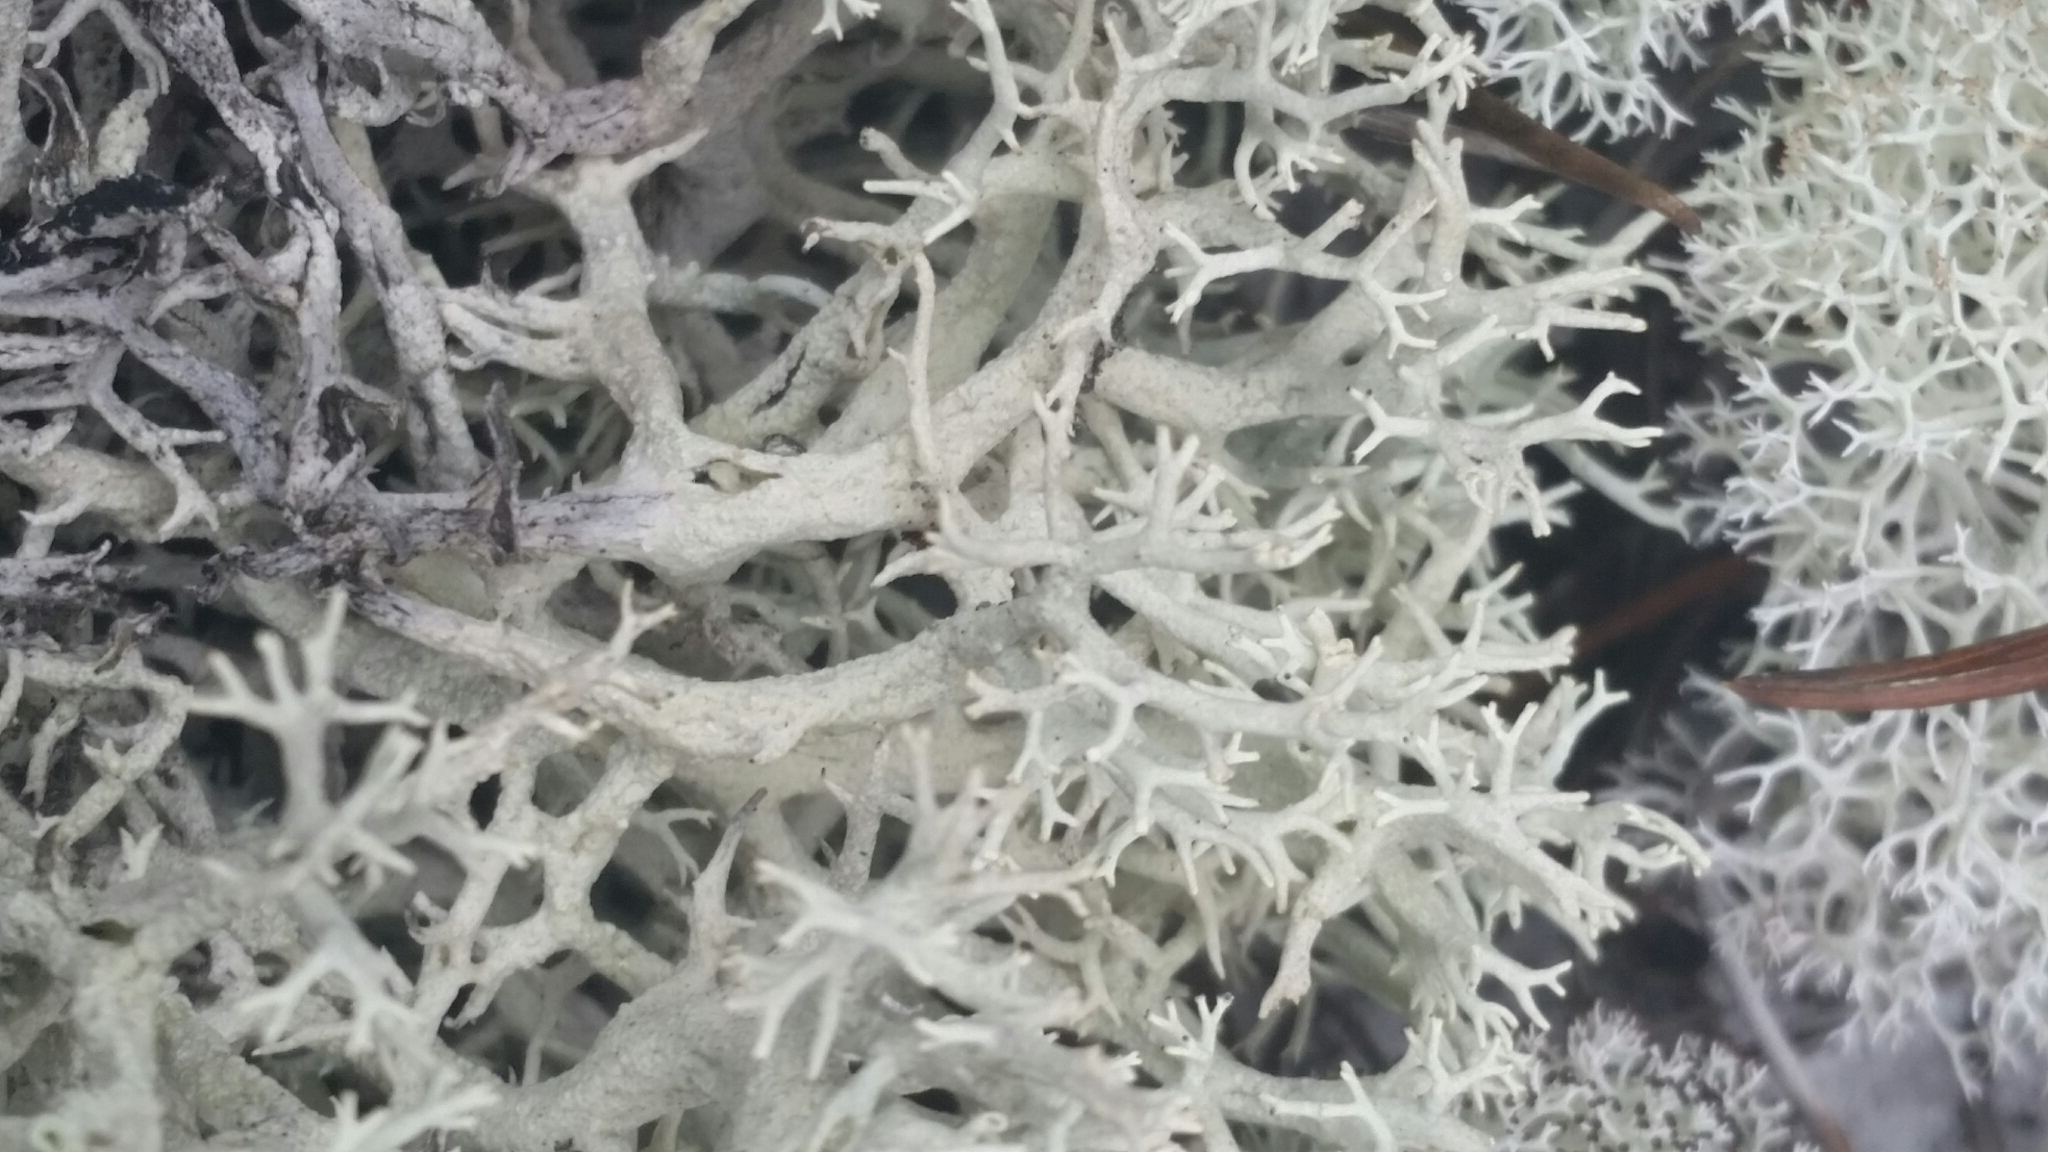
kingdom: Fungi
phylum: Ascomycota
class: Lecanoromycetes
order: Lecanorales
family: Cladoniaceae
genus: Cladonia
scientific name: Cladonia pachycladodes
